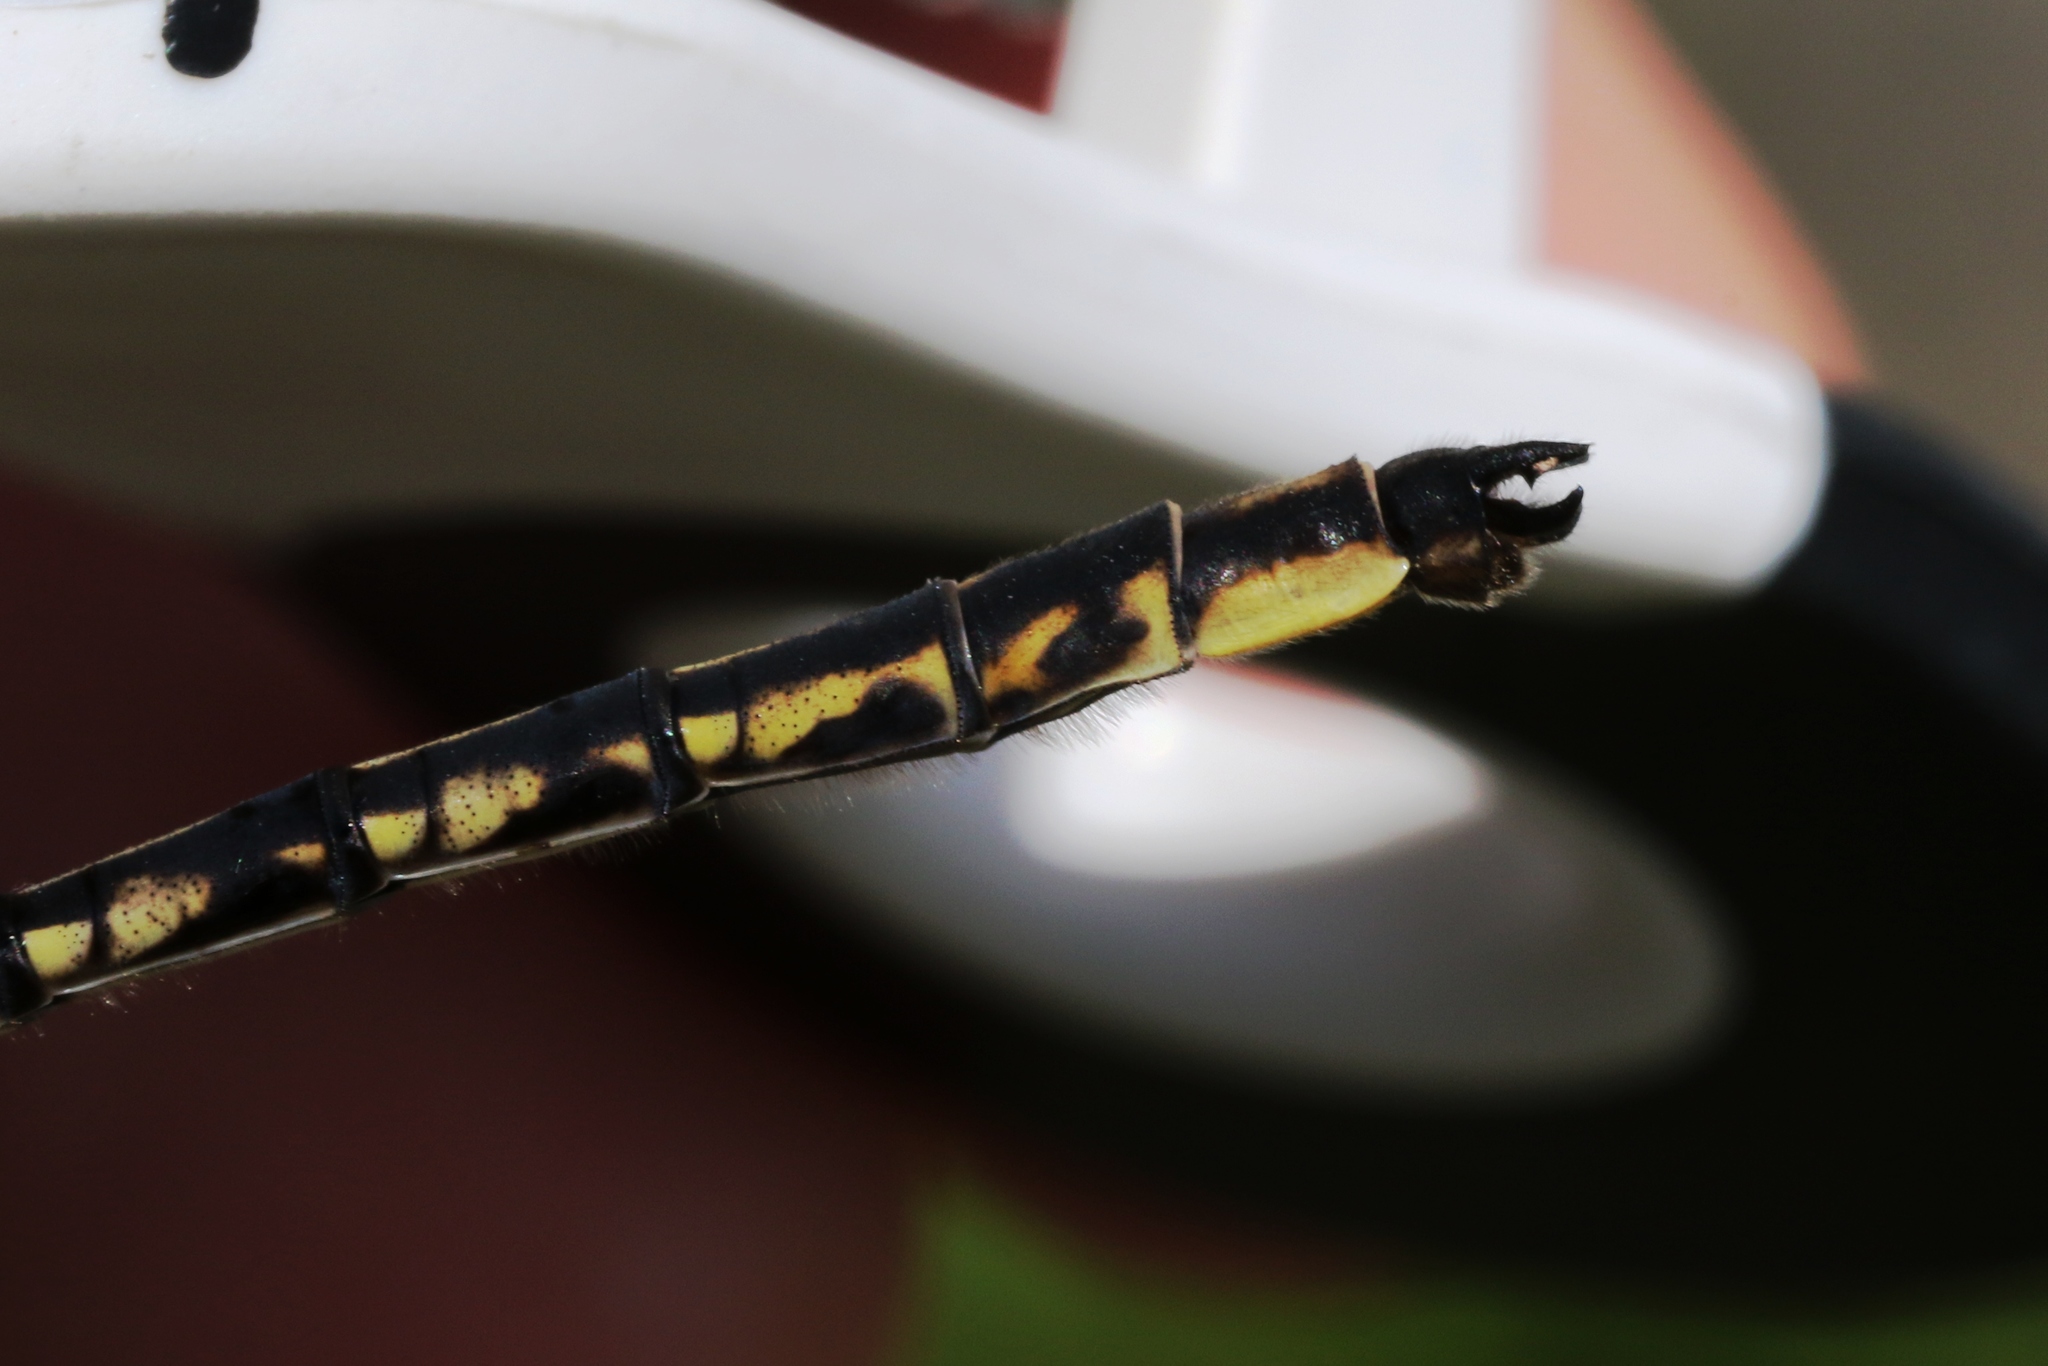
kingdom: Animalia
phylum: Arthropoda
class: Insecta
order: Odonata
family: Gomphidae
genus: Phanogomphus
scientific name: Phanogomphus spicatus
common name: Dusky clubtail
